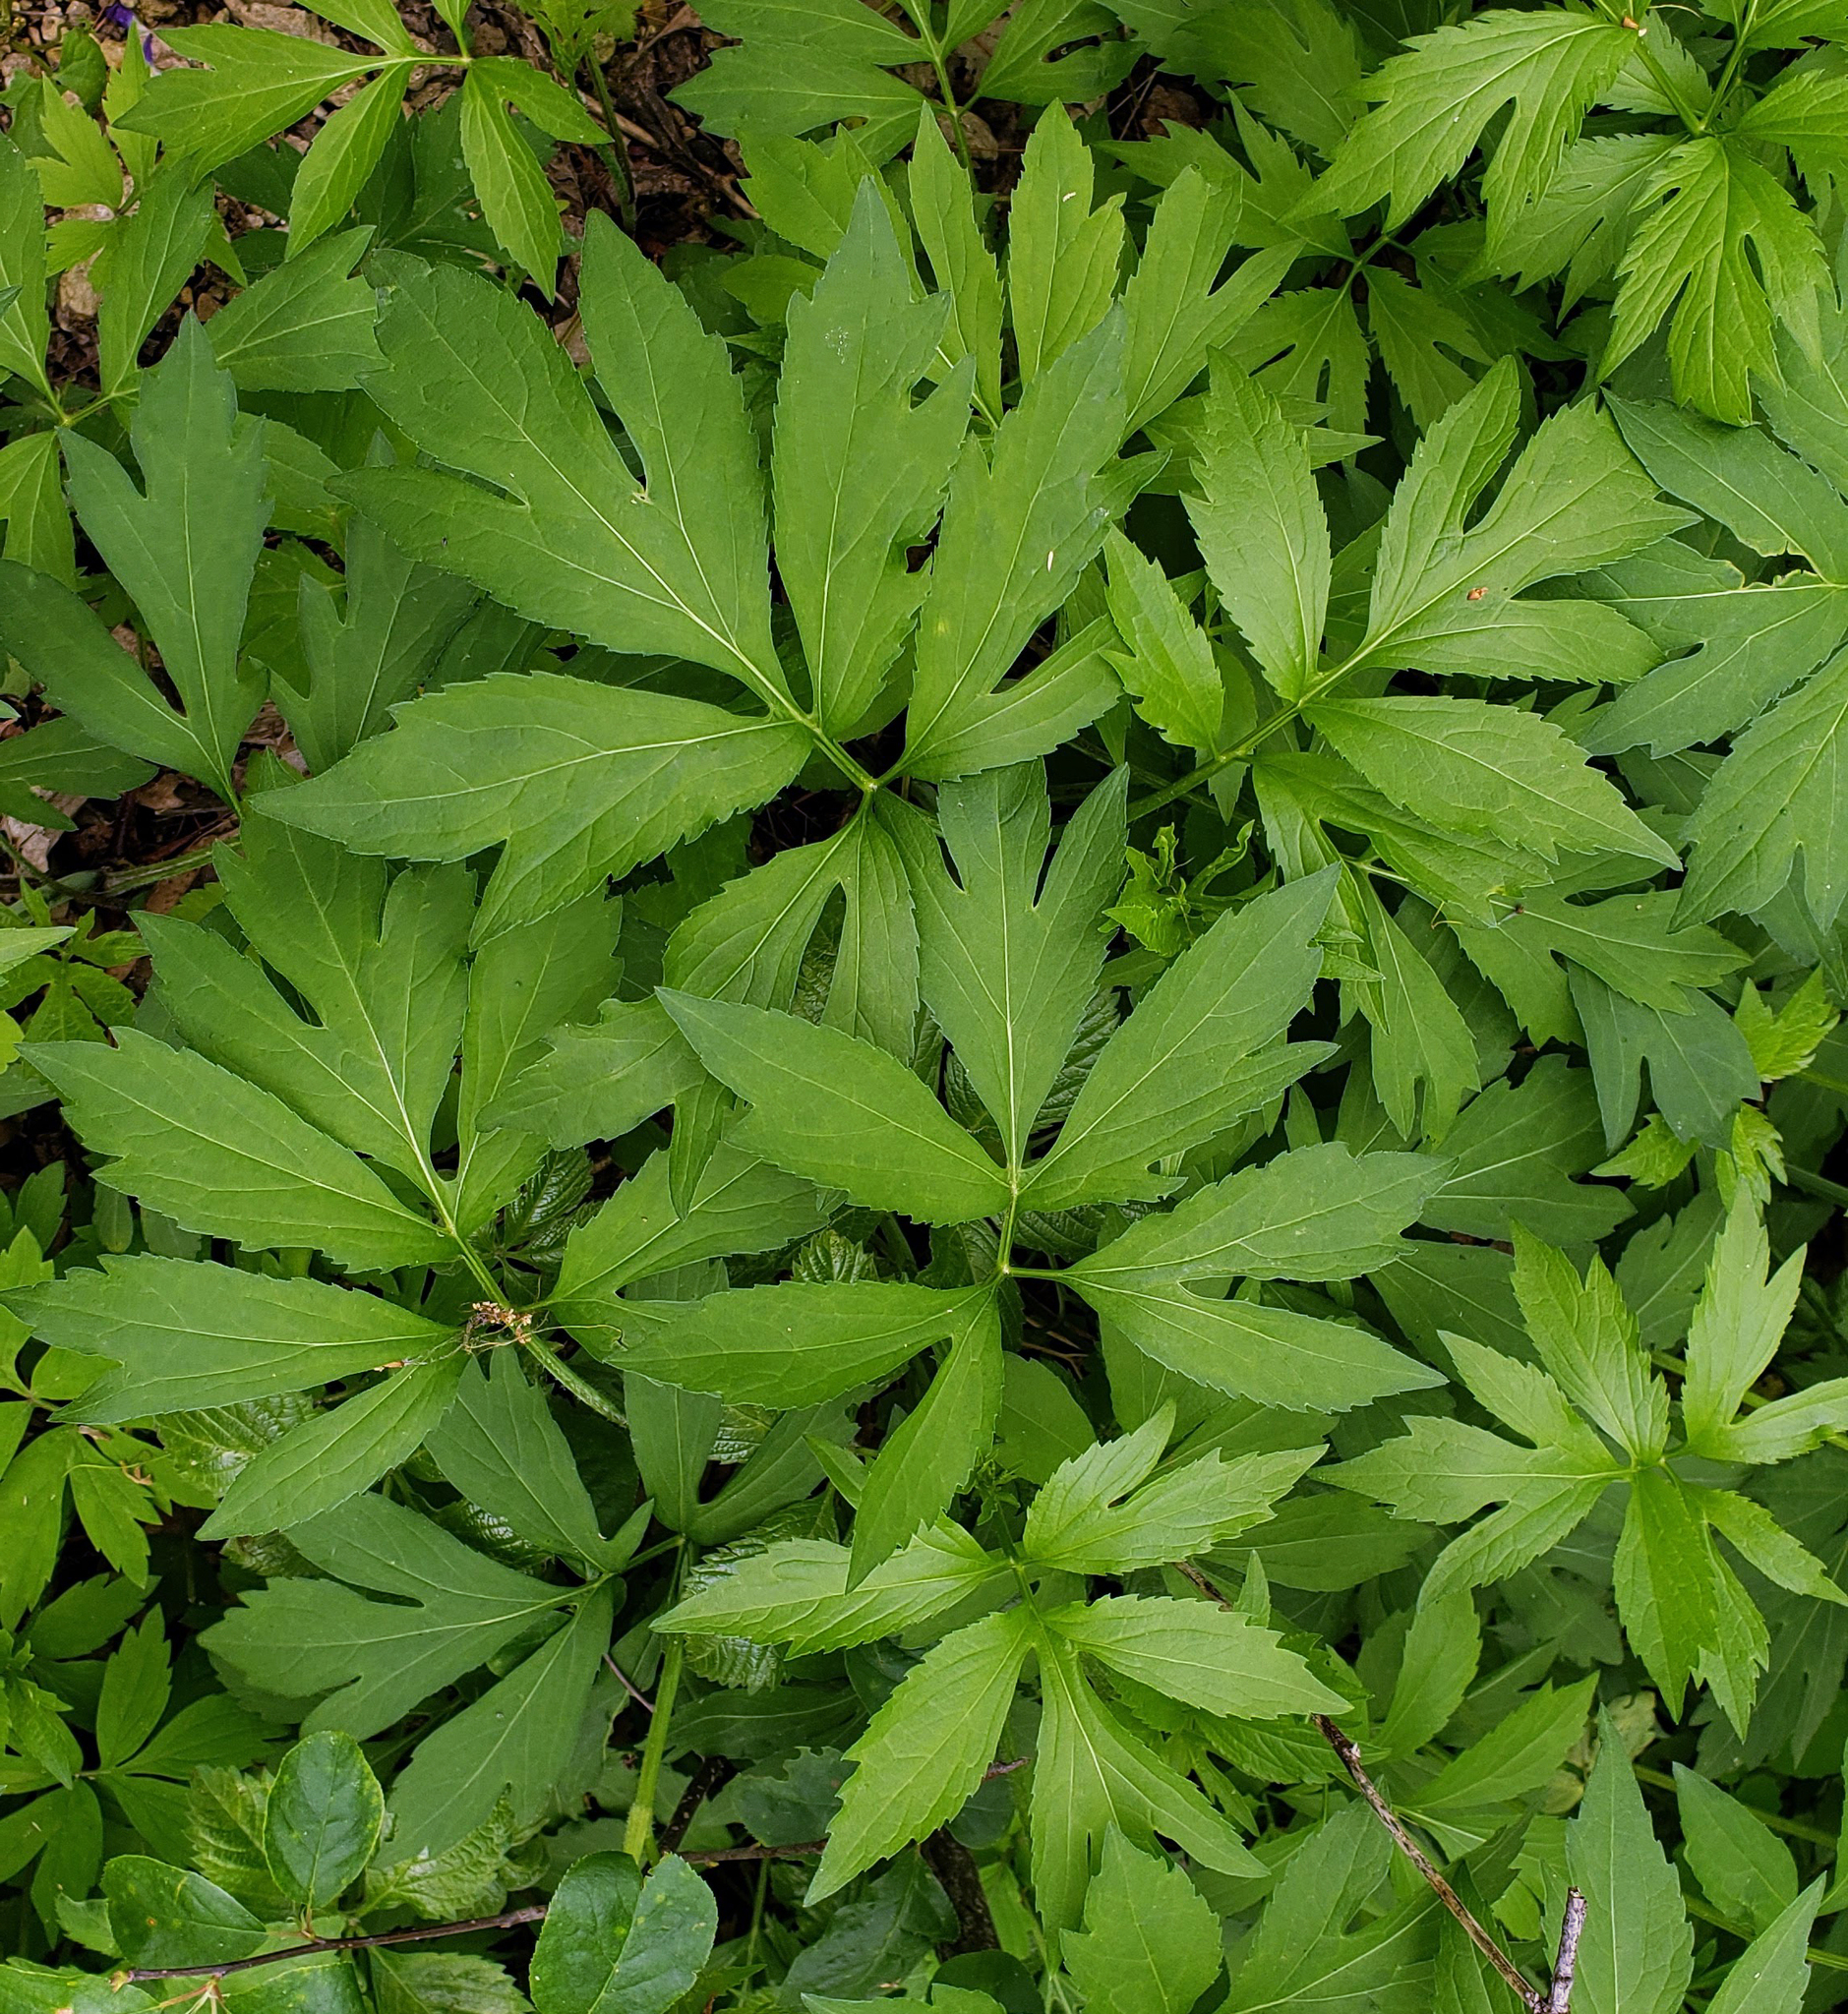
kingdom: Plantae
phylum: Tracheophyta
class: Magnoliopsida
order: Asterales
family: Asteraceae
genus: Rudbeckia
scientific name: Rudbeckia laciniata
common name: Coneflower
